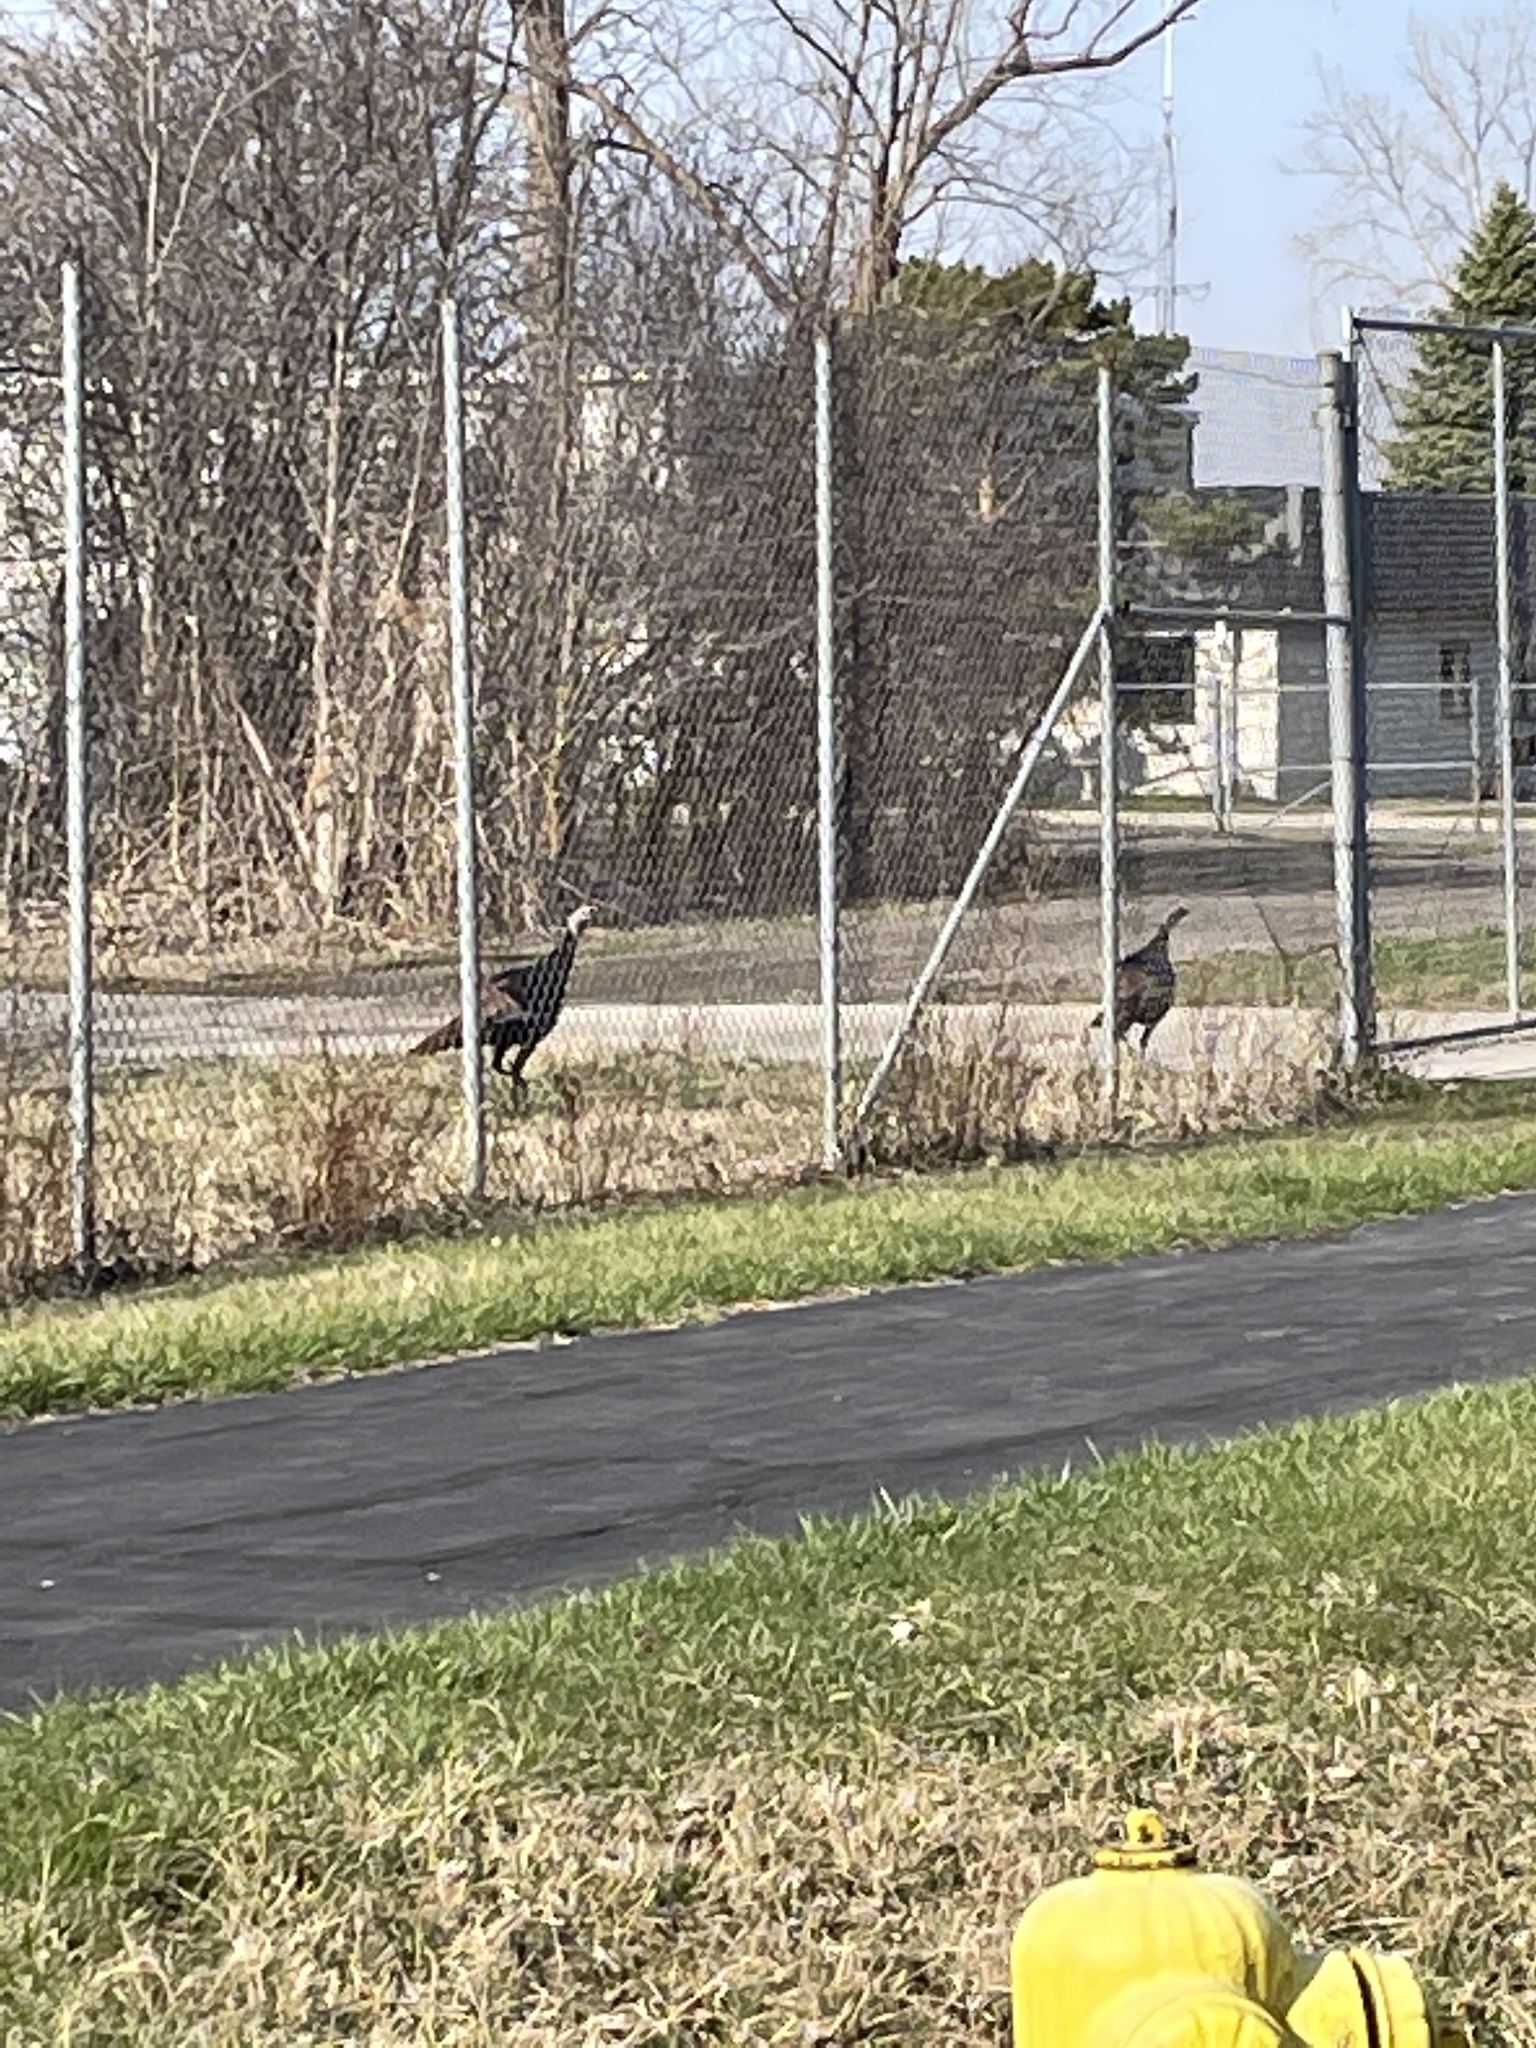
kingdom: Animalia
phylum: Chordata
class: Aves
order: Galliformes
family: Phasianidae
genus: Meleagris
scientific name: Meleagris gallopavo
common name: Wild turkey
